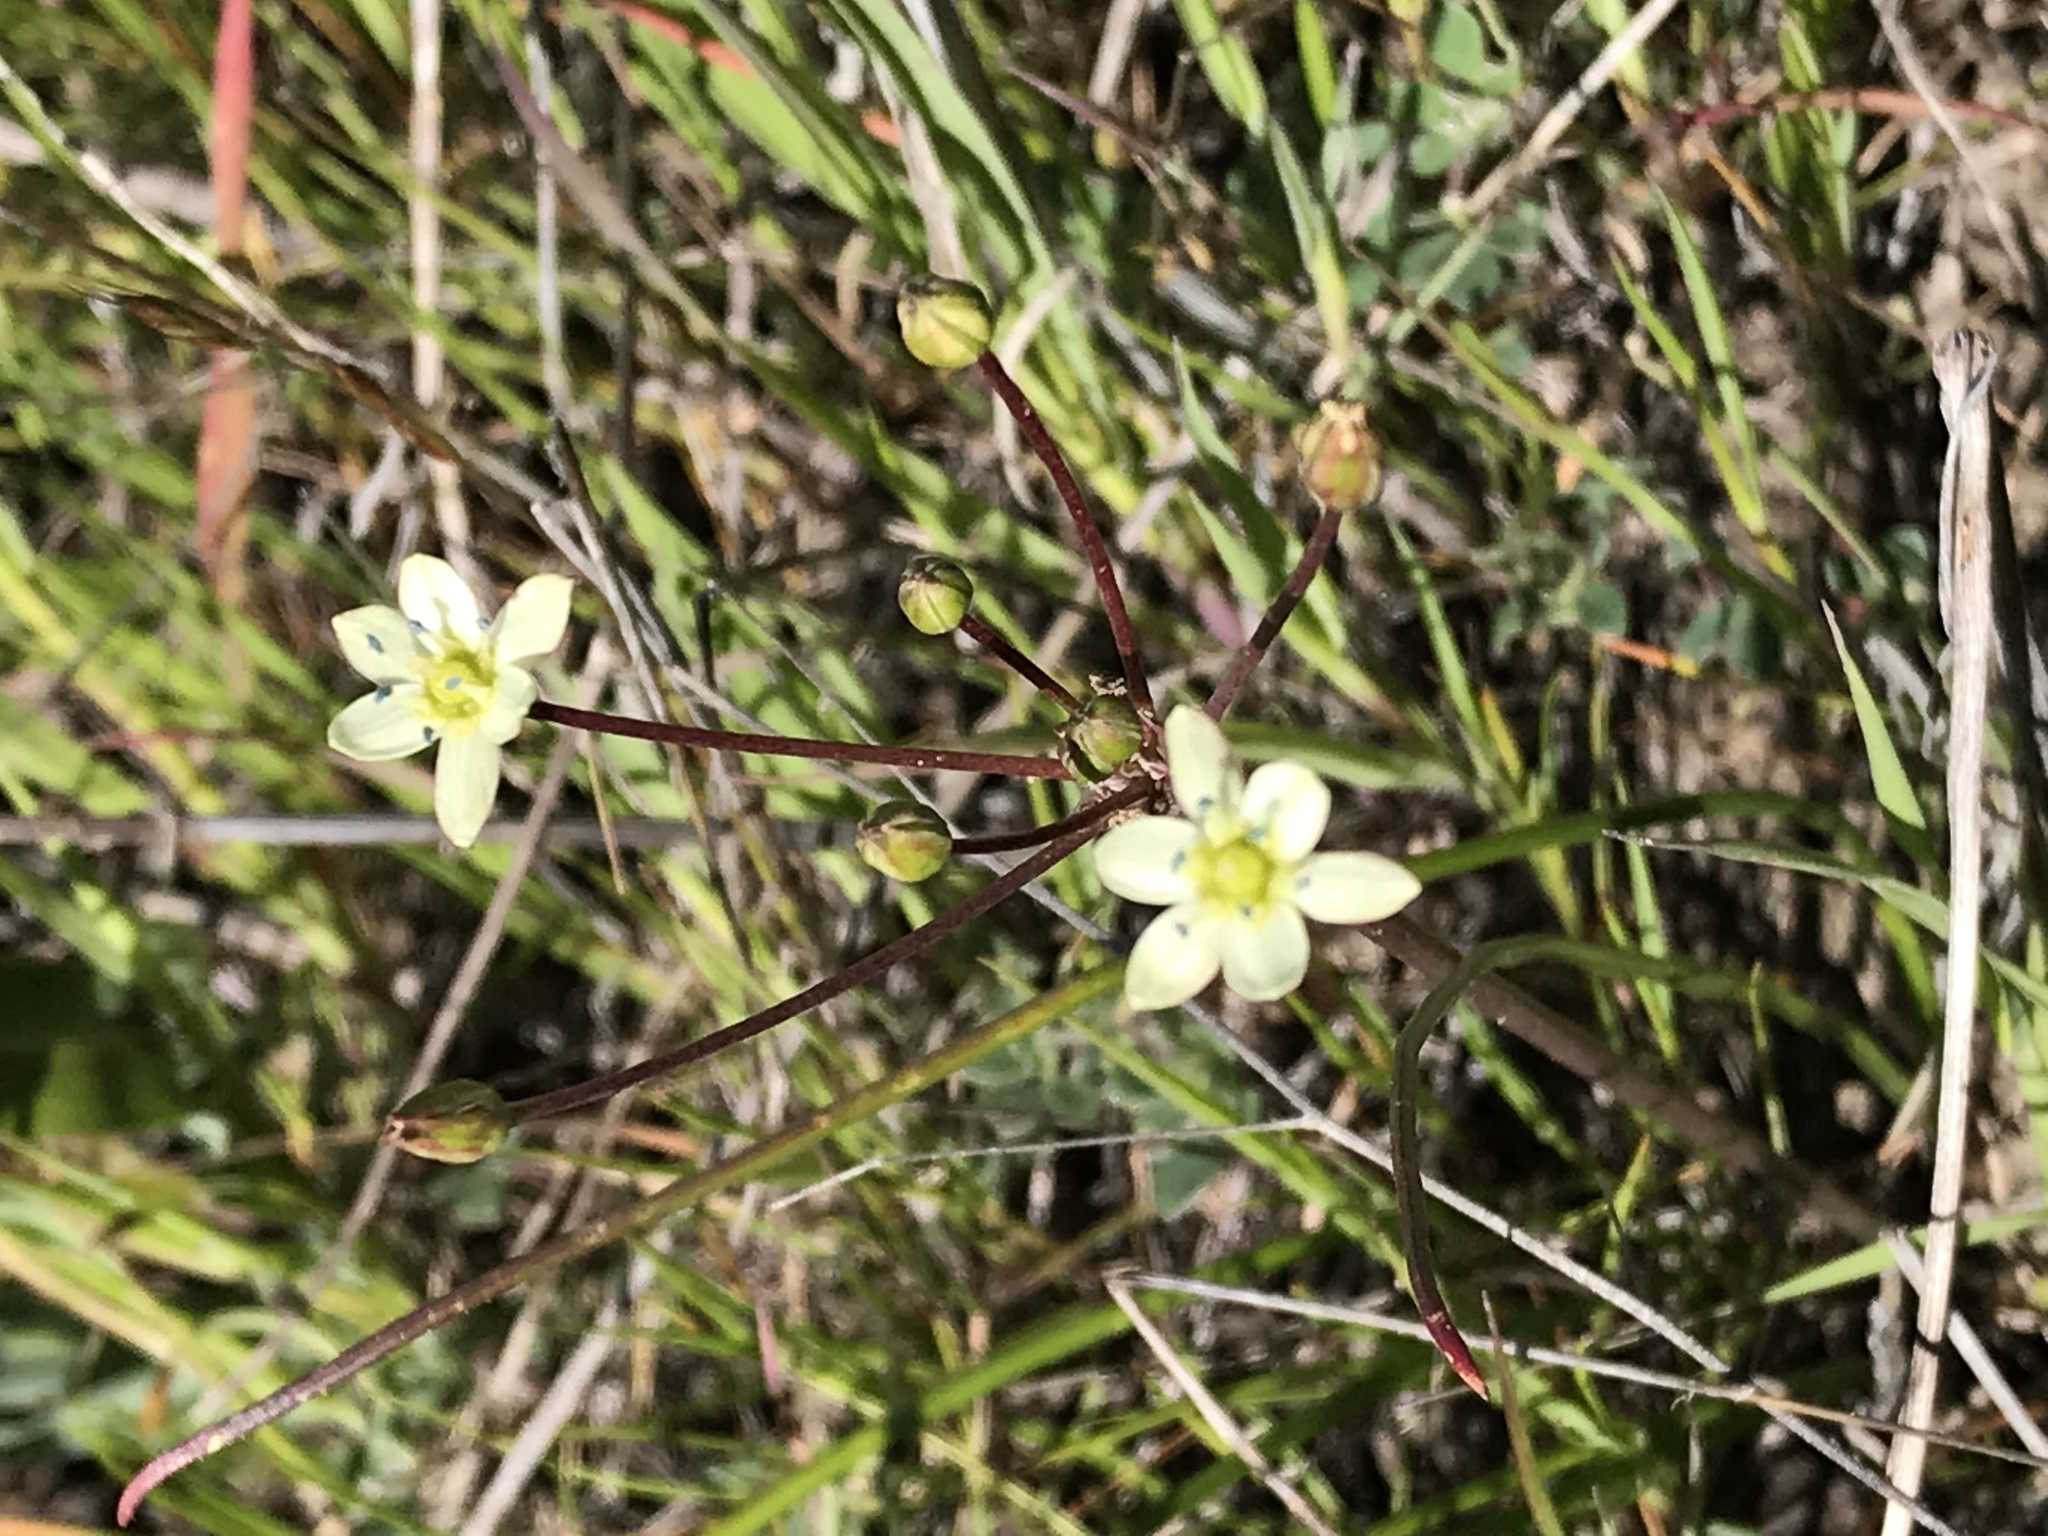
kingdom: Plantae
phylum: Tracheophyta
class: Liliopsida
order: Asparagales
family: Asparagaceae
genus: Muilla
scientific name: Muilla maritima
